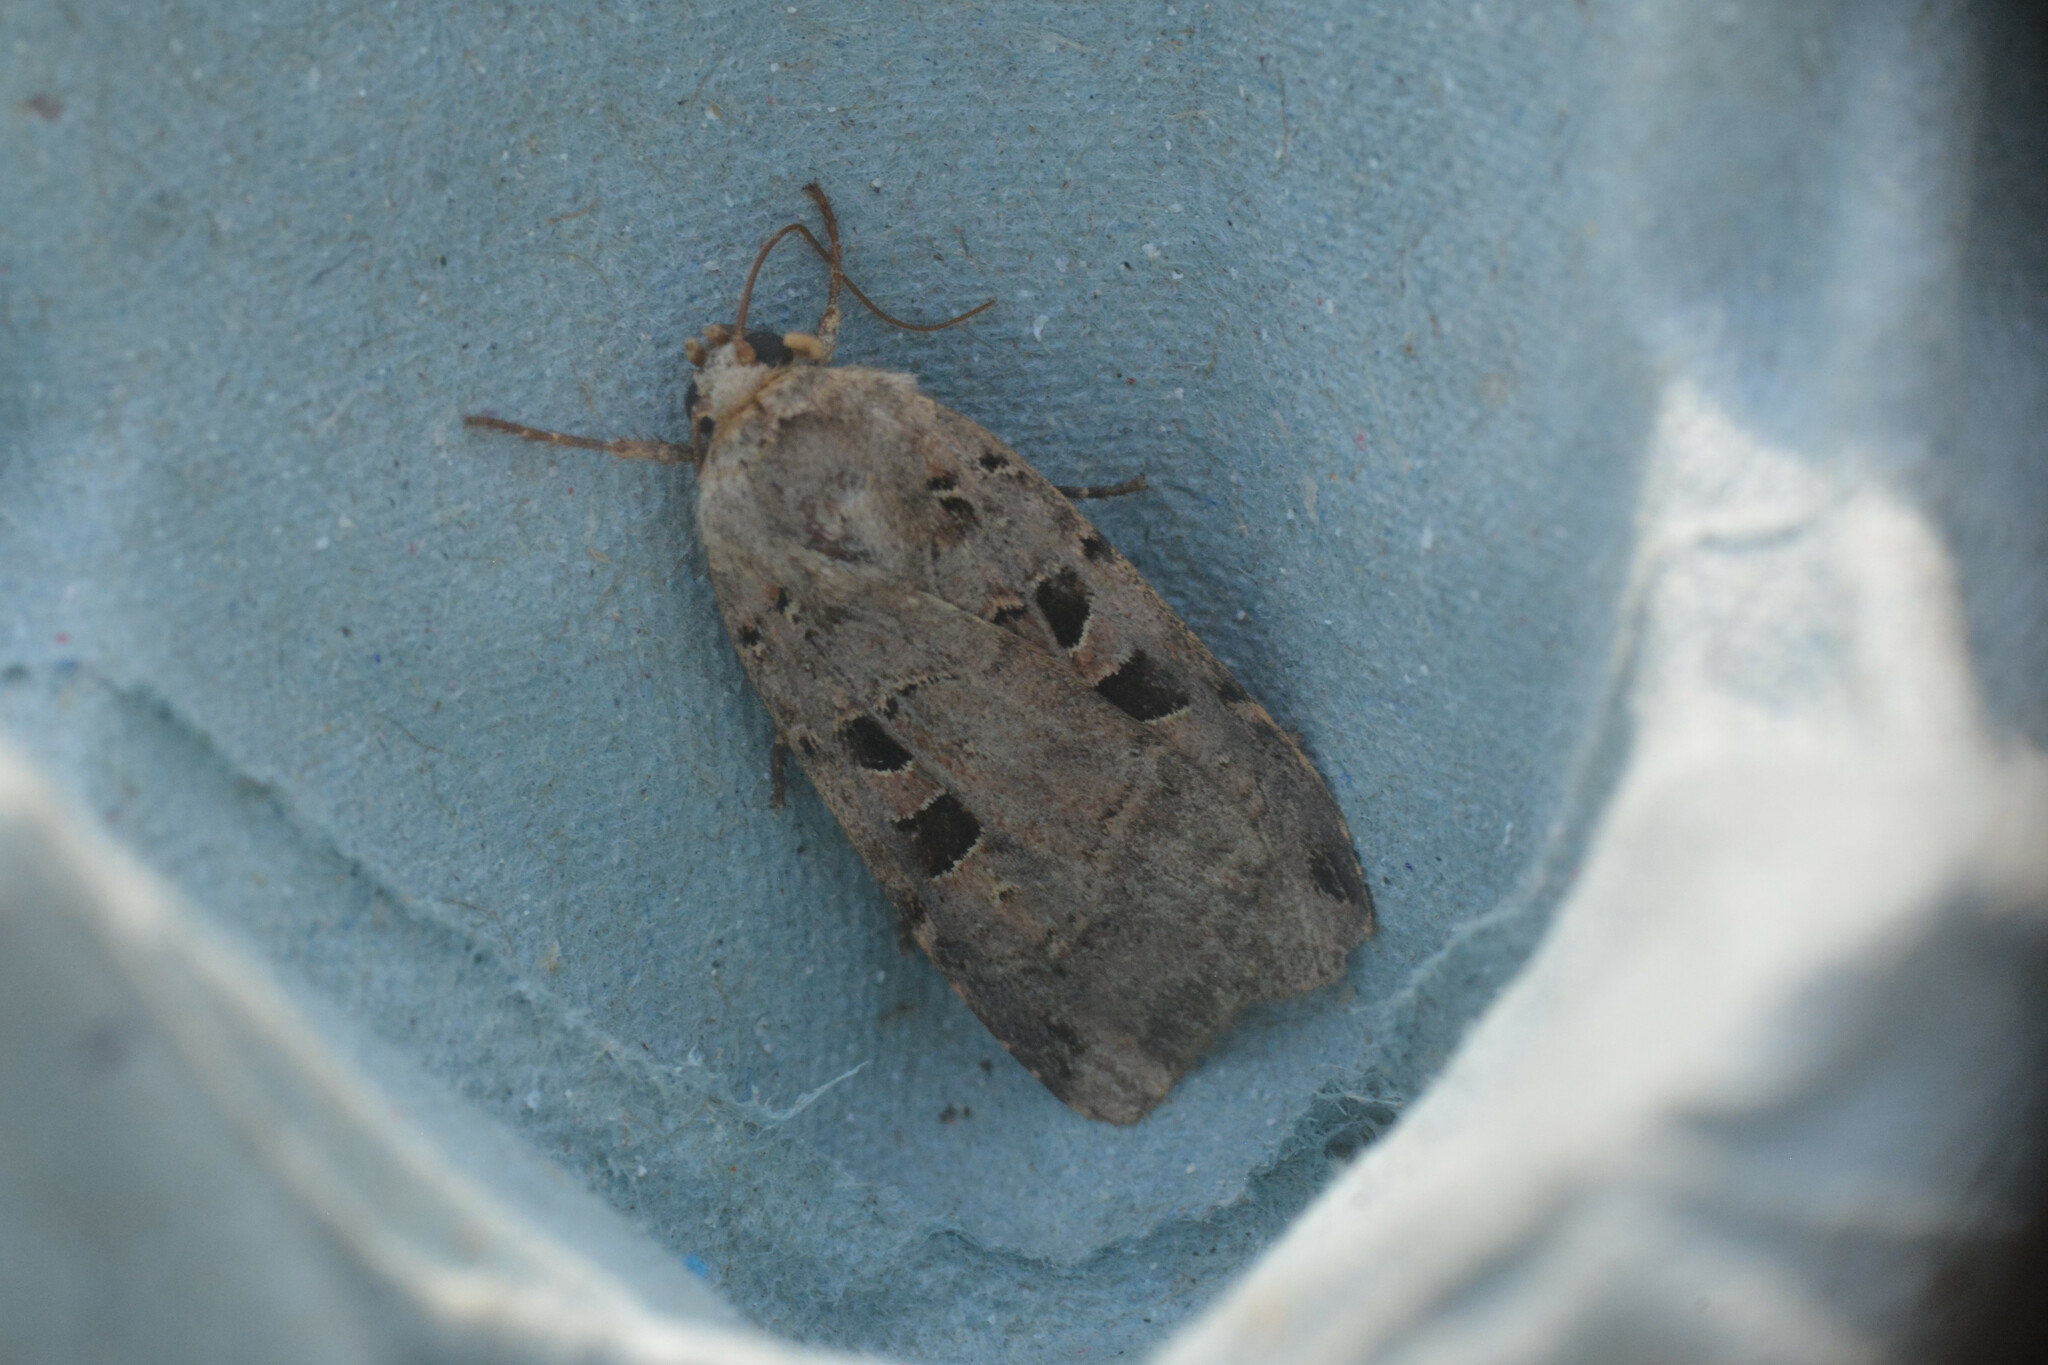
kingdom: Animalia
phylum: Arthropoda
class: Insecta
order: Lepidoptera
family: Noctuidae
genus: Xestia
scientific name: Xestia triangulum
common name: Double square-spot
